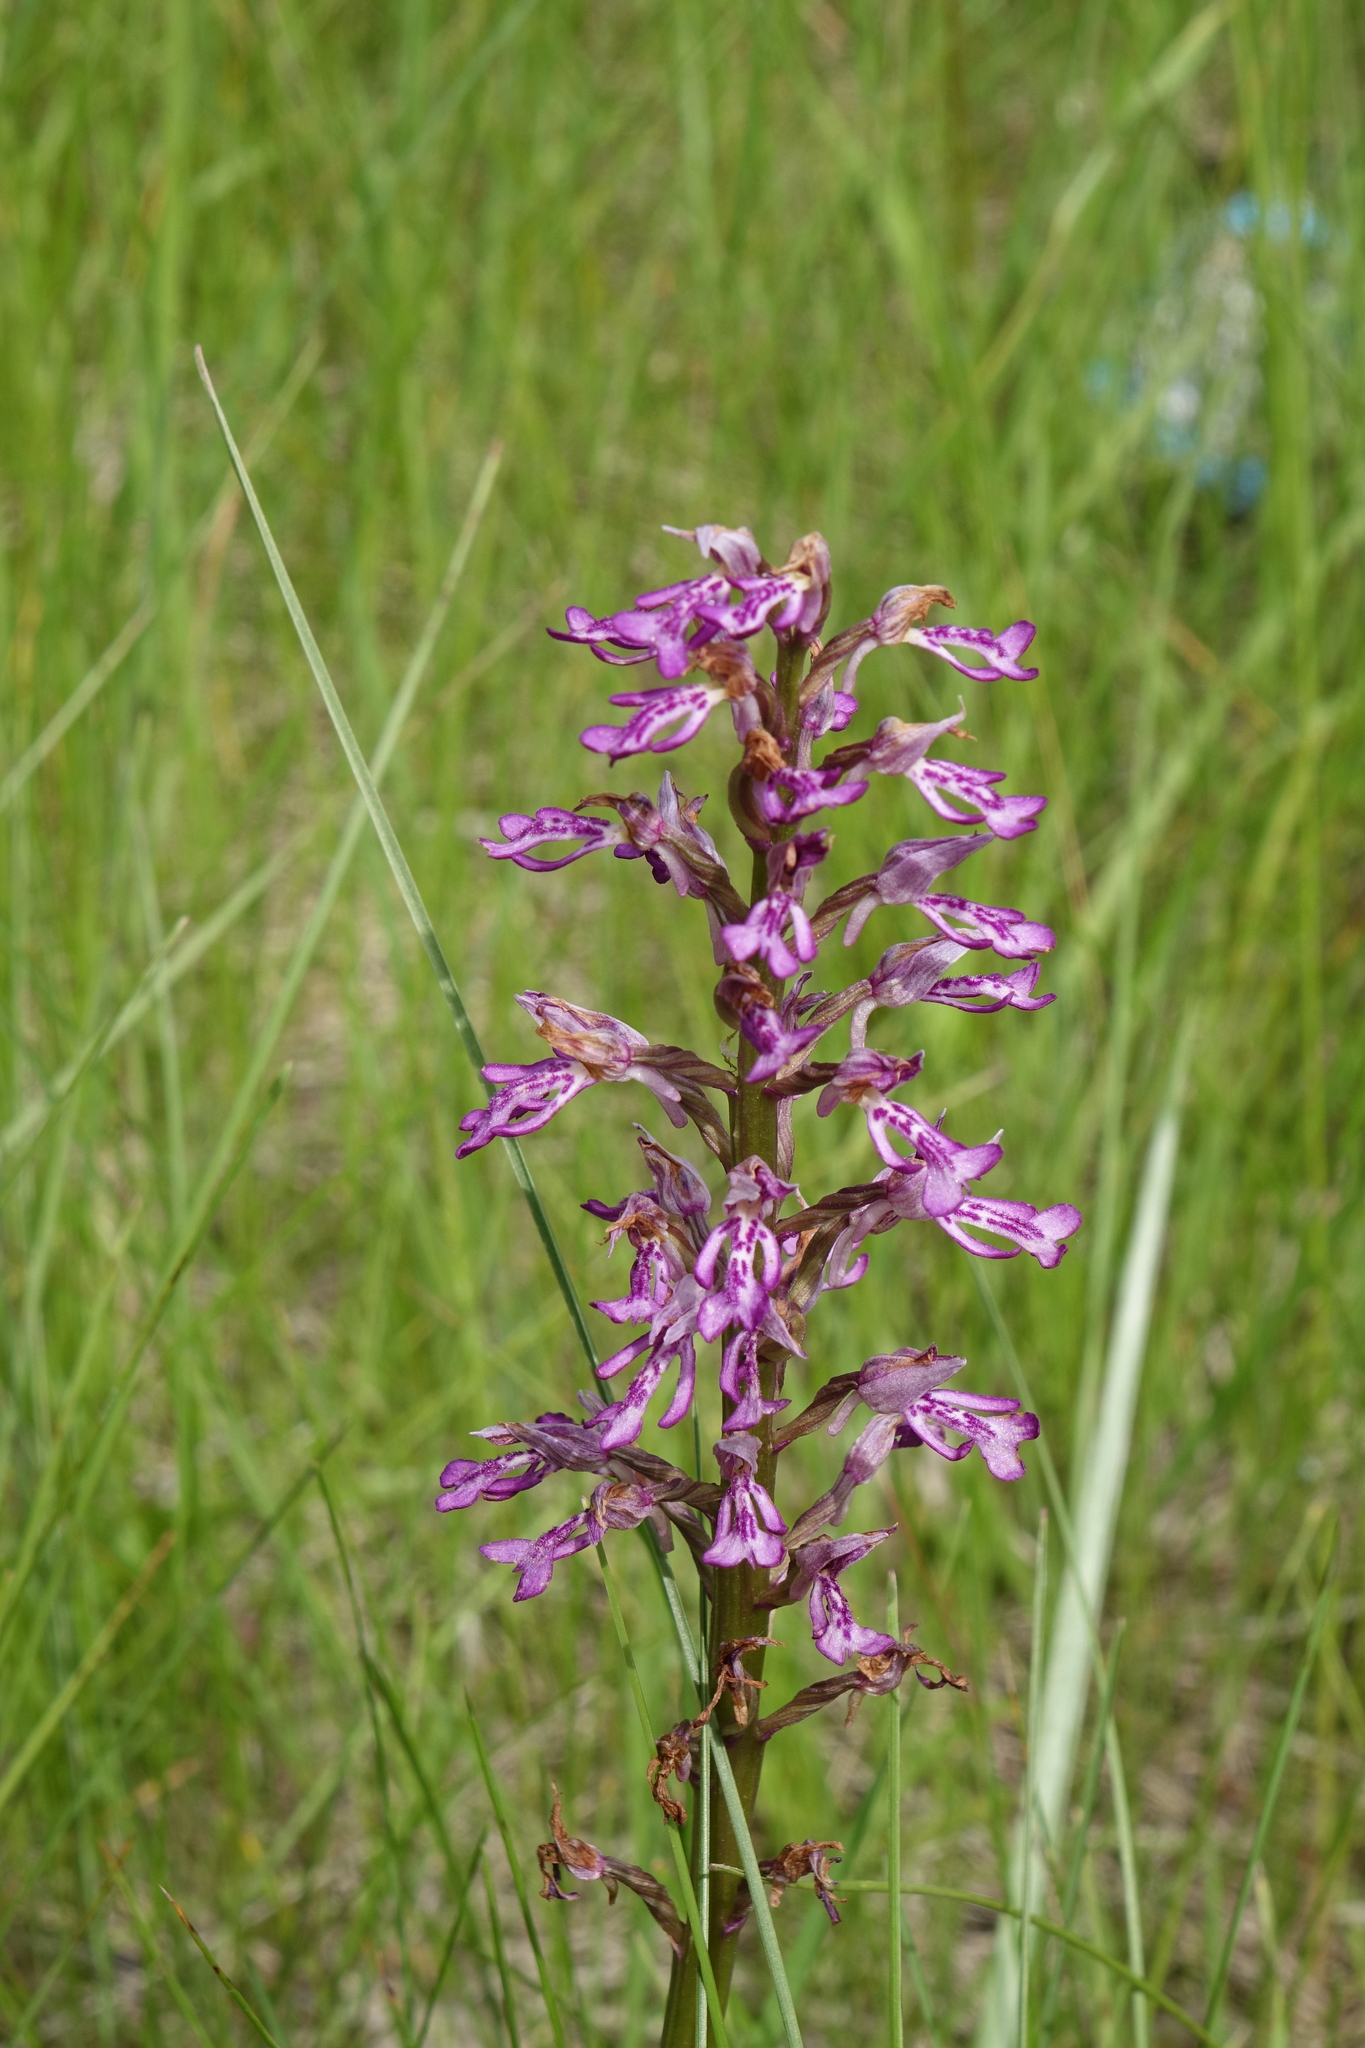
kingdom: Plantae
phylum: Tracheophyta
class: Liliopsida
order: Asparagales
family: Orchidaceae
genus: Orchis
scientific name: Orchis militaris
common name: Military orchid
